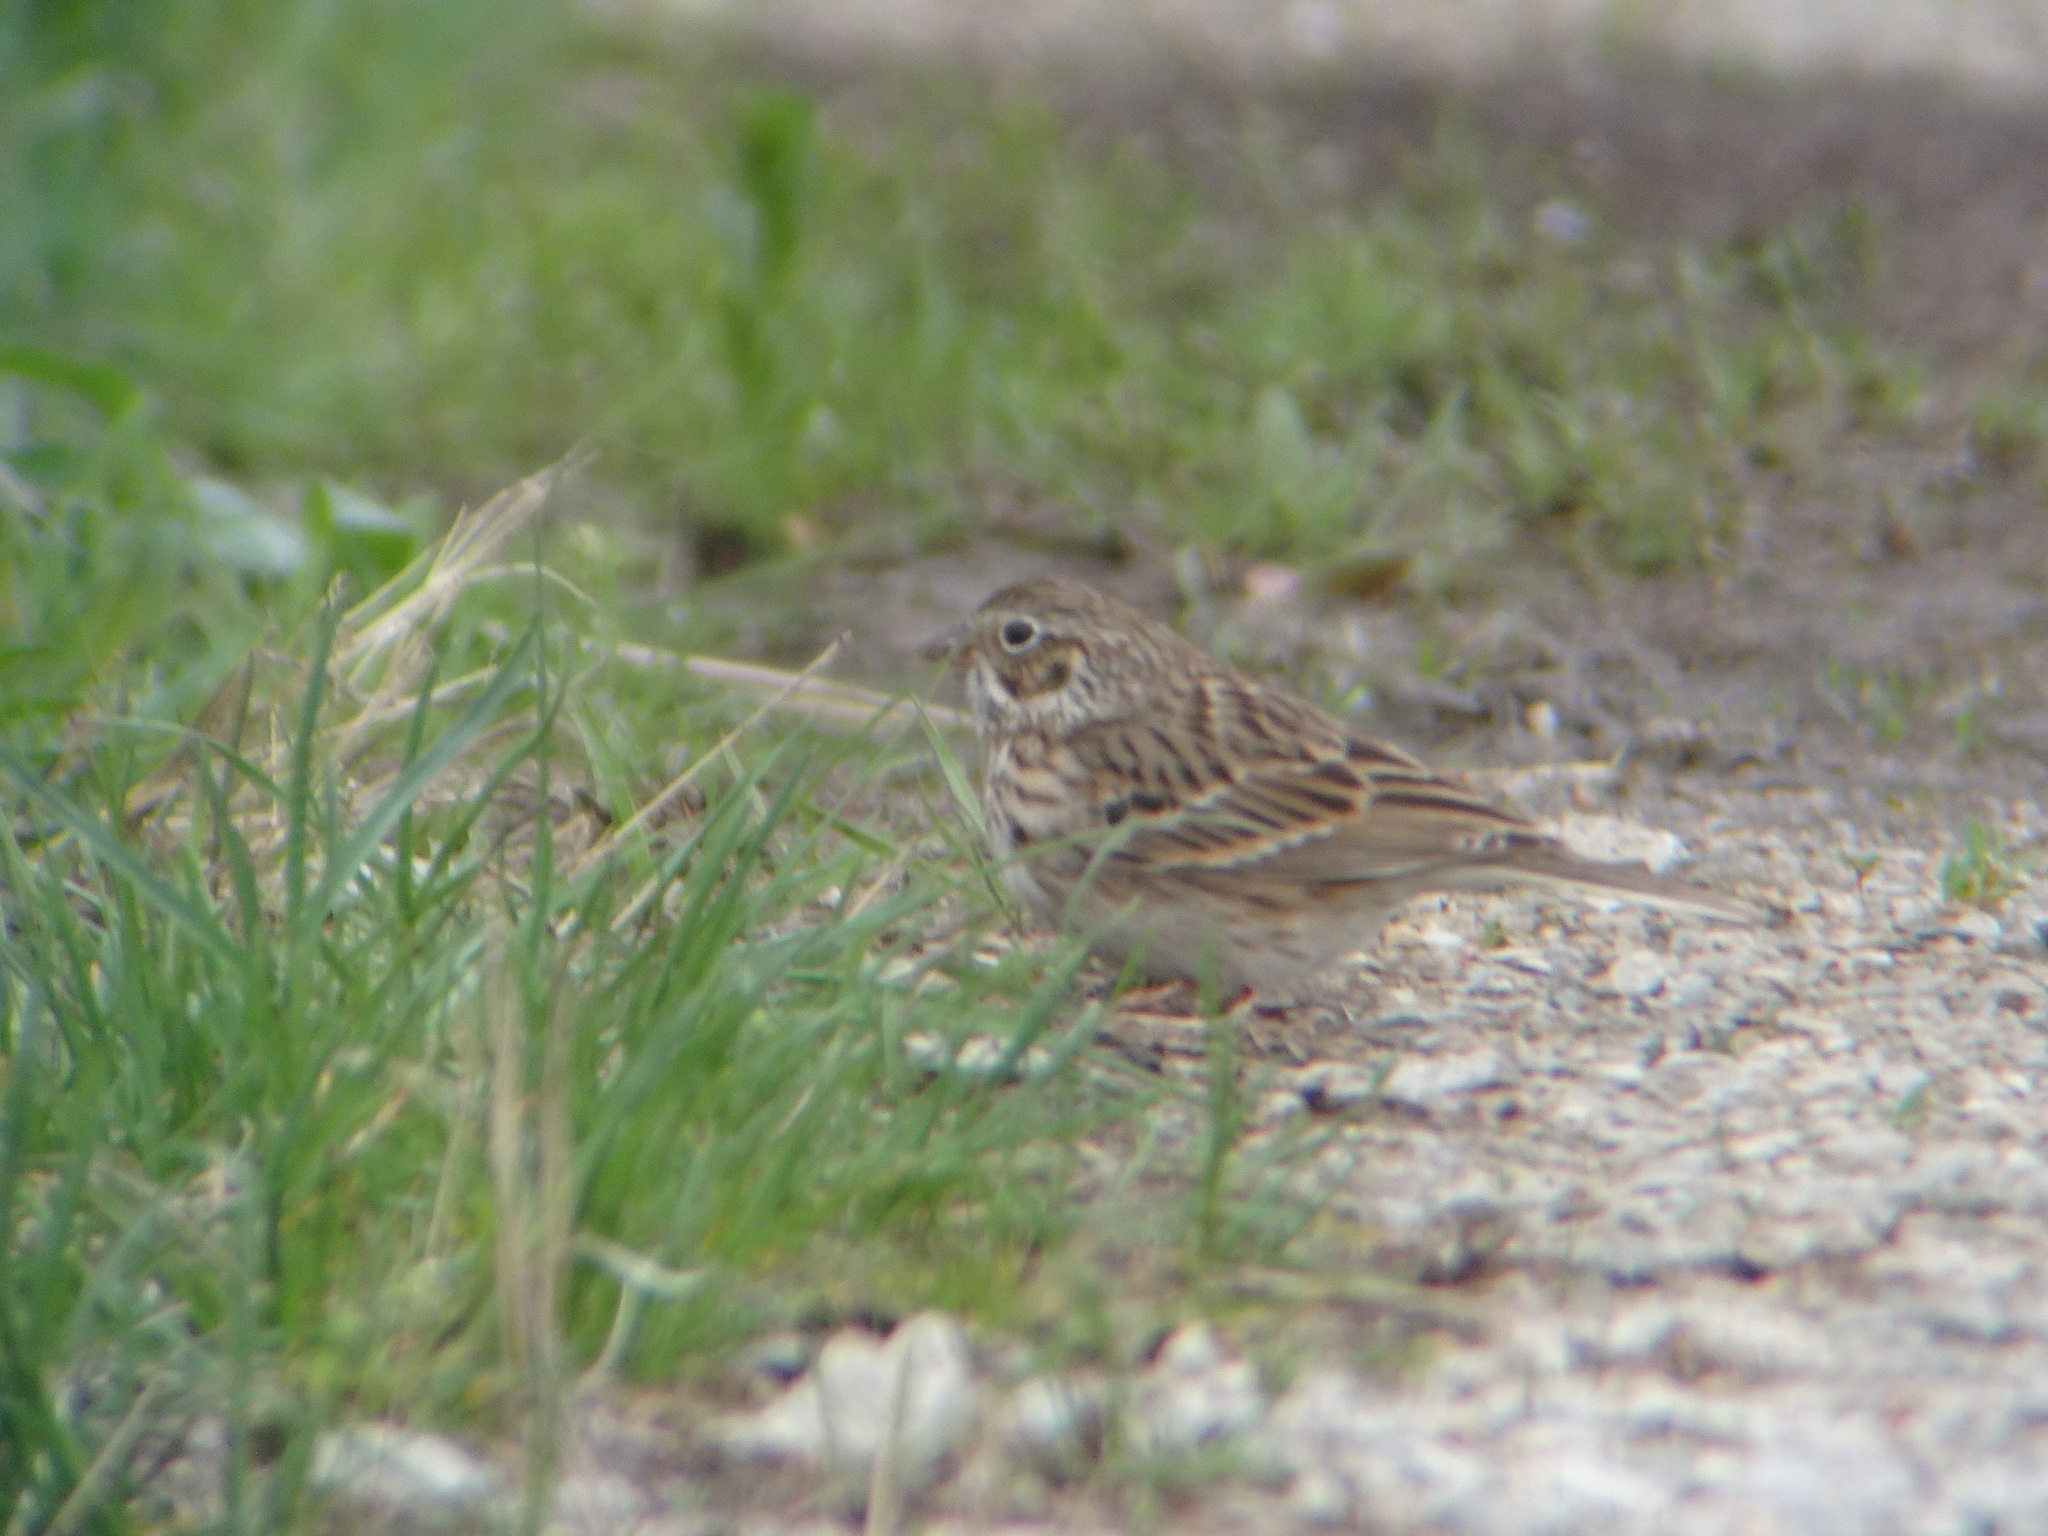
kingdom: Animalia
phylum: Chordata
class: Aves
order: Passeriformes
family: Passerellidae
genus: Pooecetes
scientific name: Pooecetes gramineus
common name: Vesper sparrow
